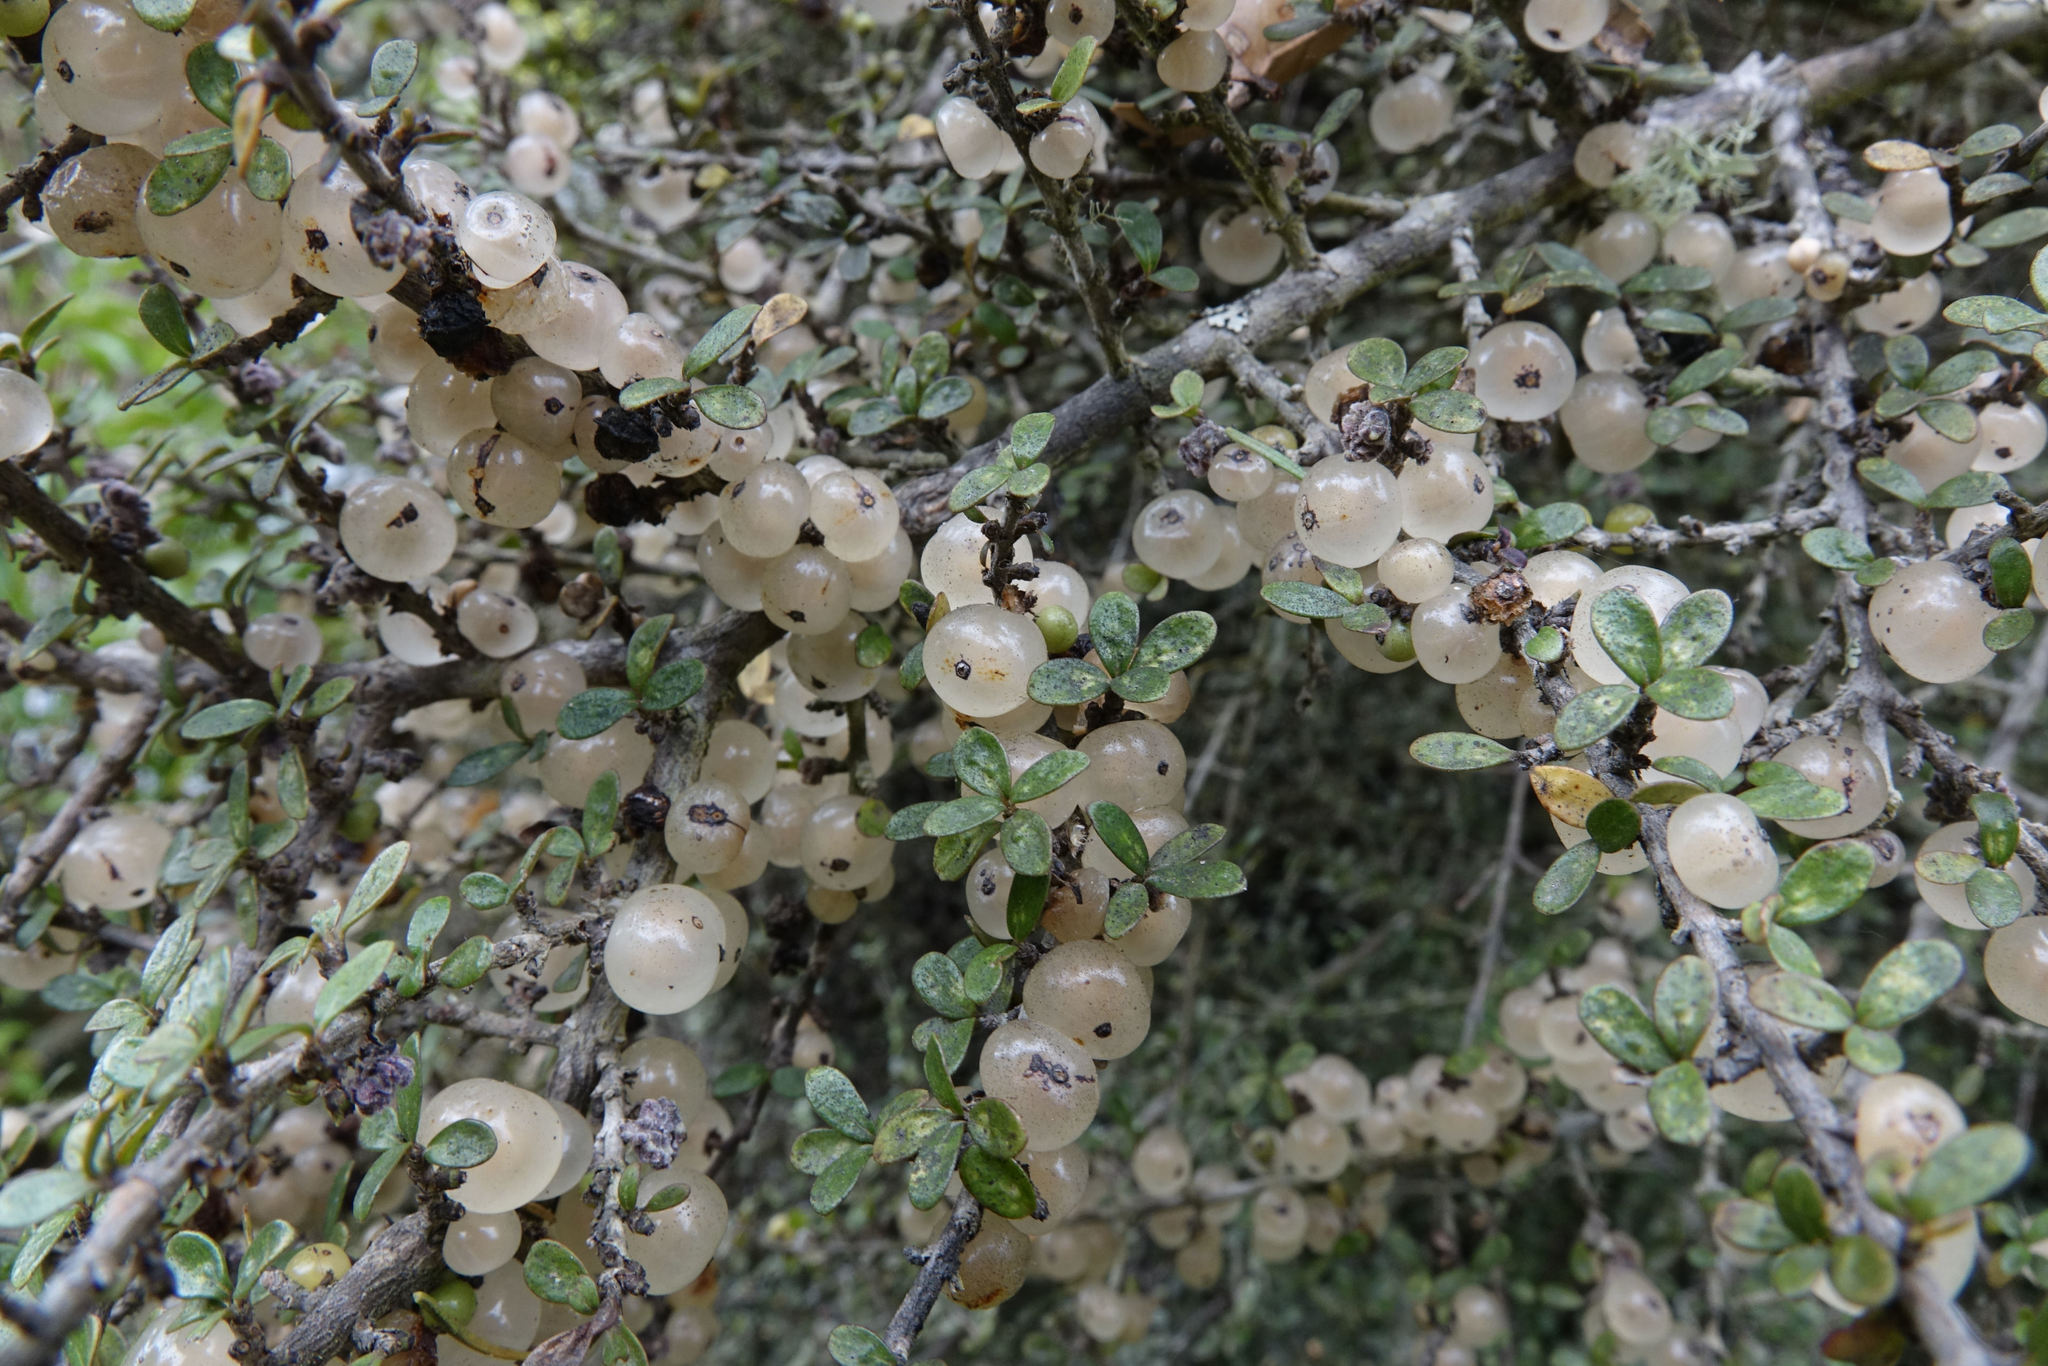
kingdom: Plantae
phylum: Tracheophyta
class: Magnoliopsida
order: Gentianales
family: Rubiaceae
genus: Coprosma
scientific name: Coprosma dumosa
